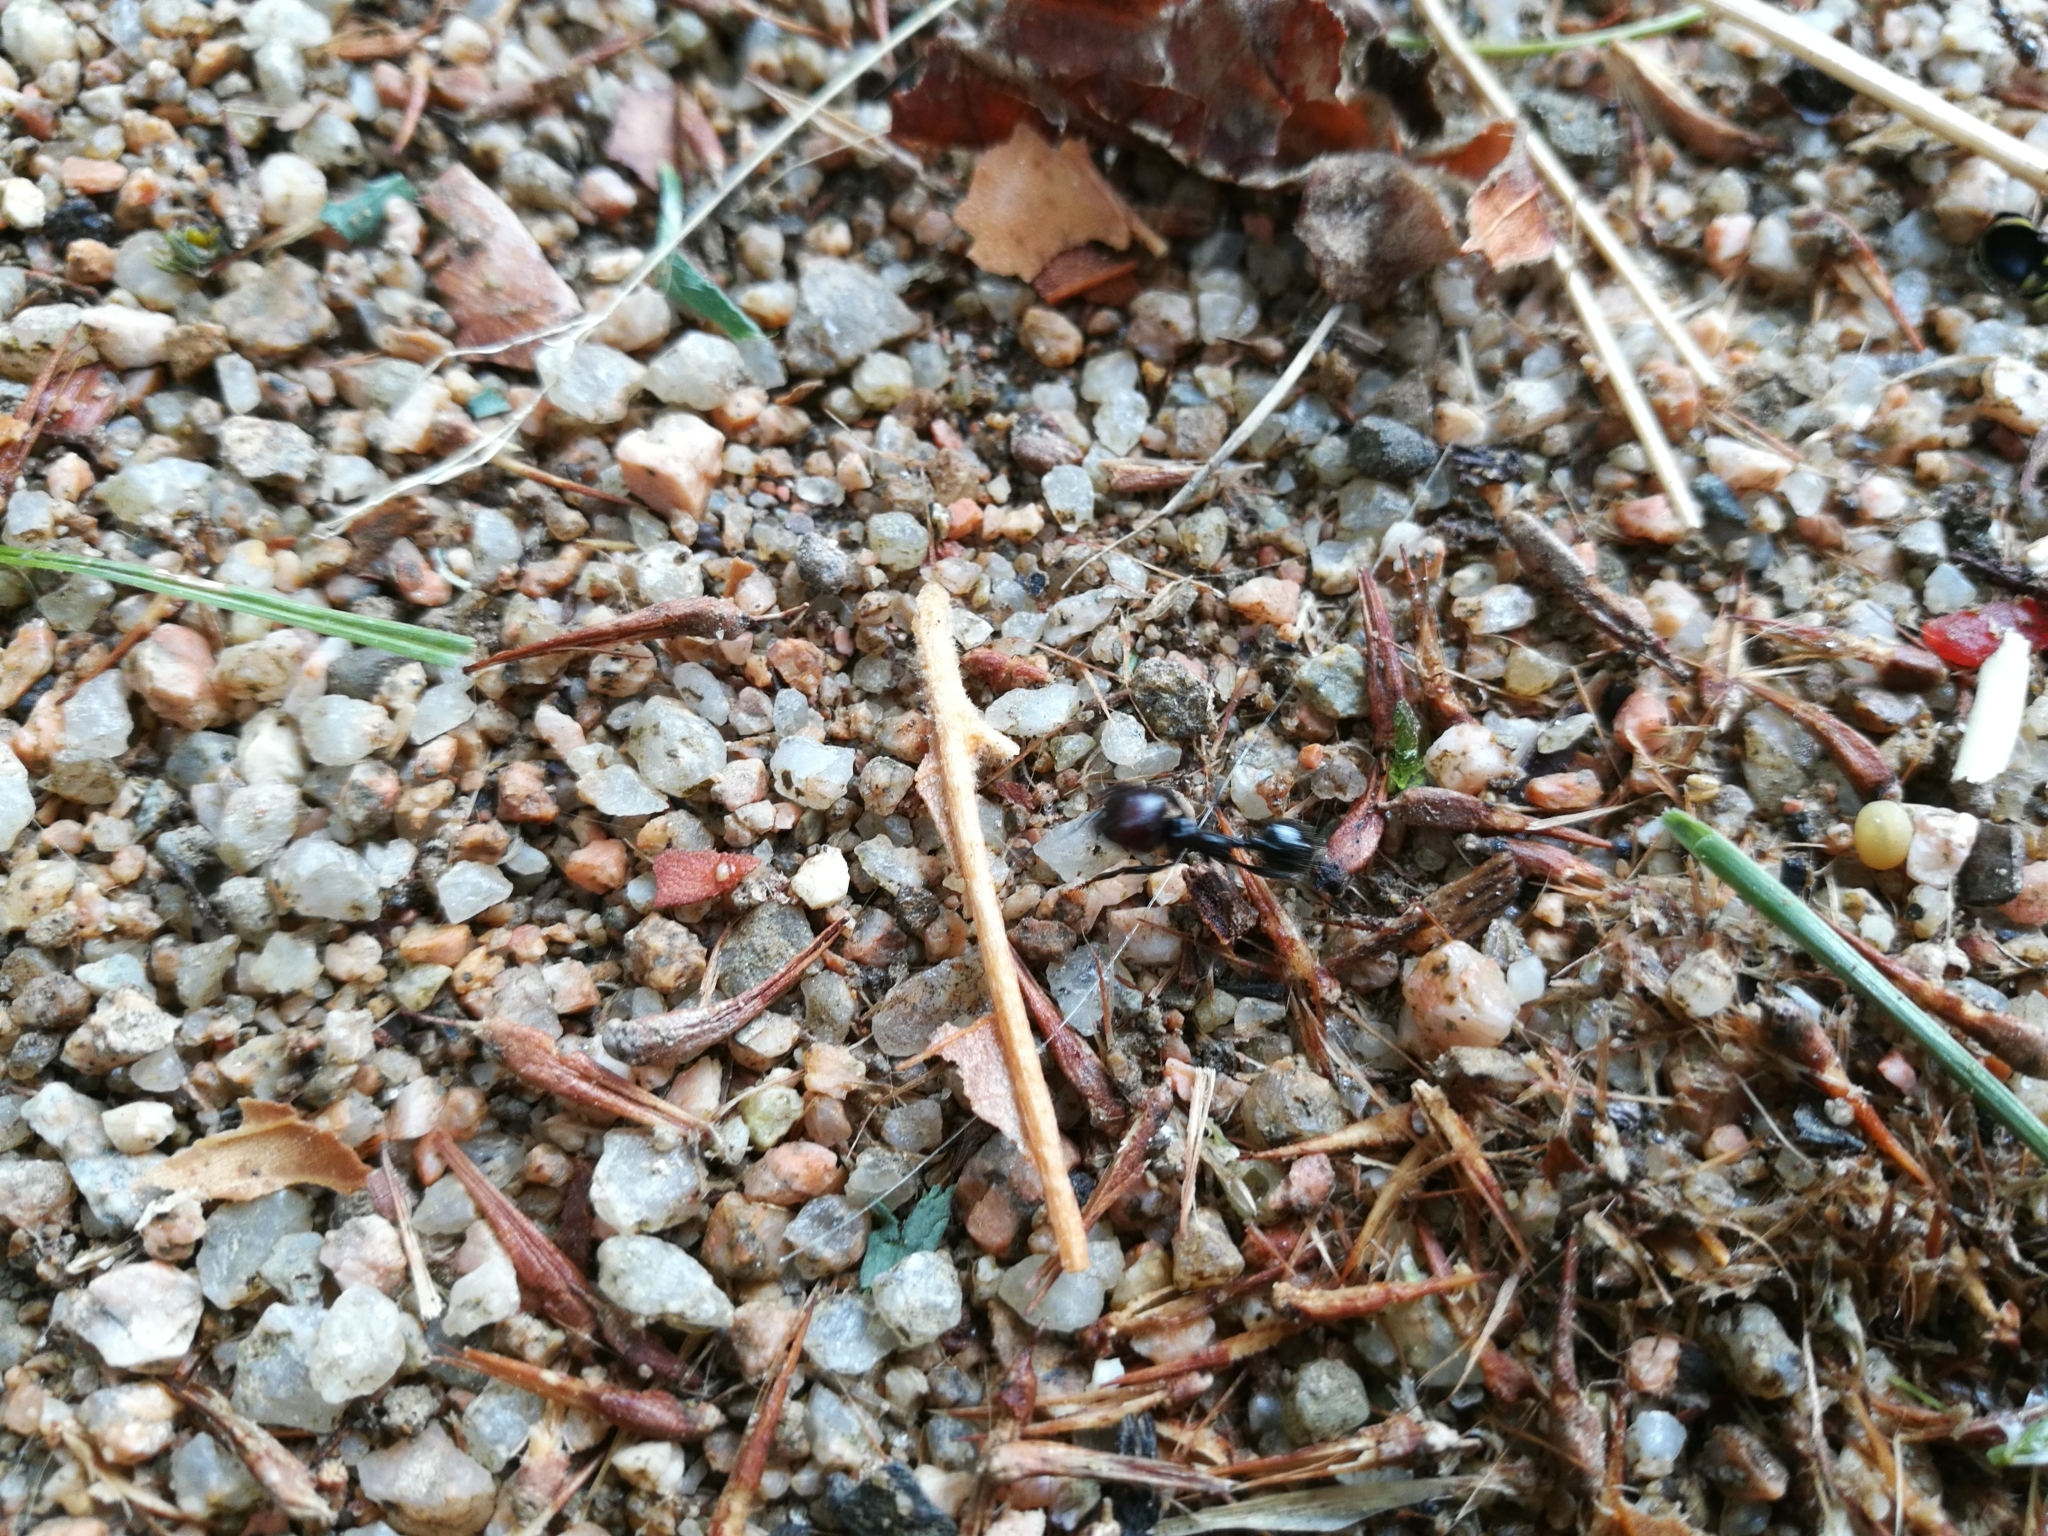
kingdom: Animalia
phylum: Arthropoda
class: Insecta
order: Hymenoptera
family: Formicidae
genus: Messor
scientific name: Messor barbarus
